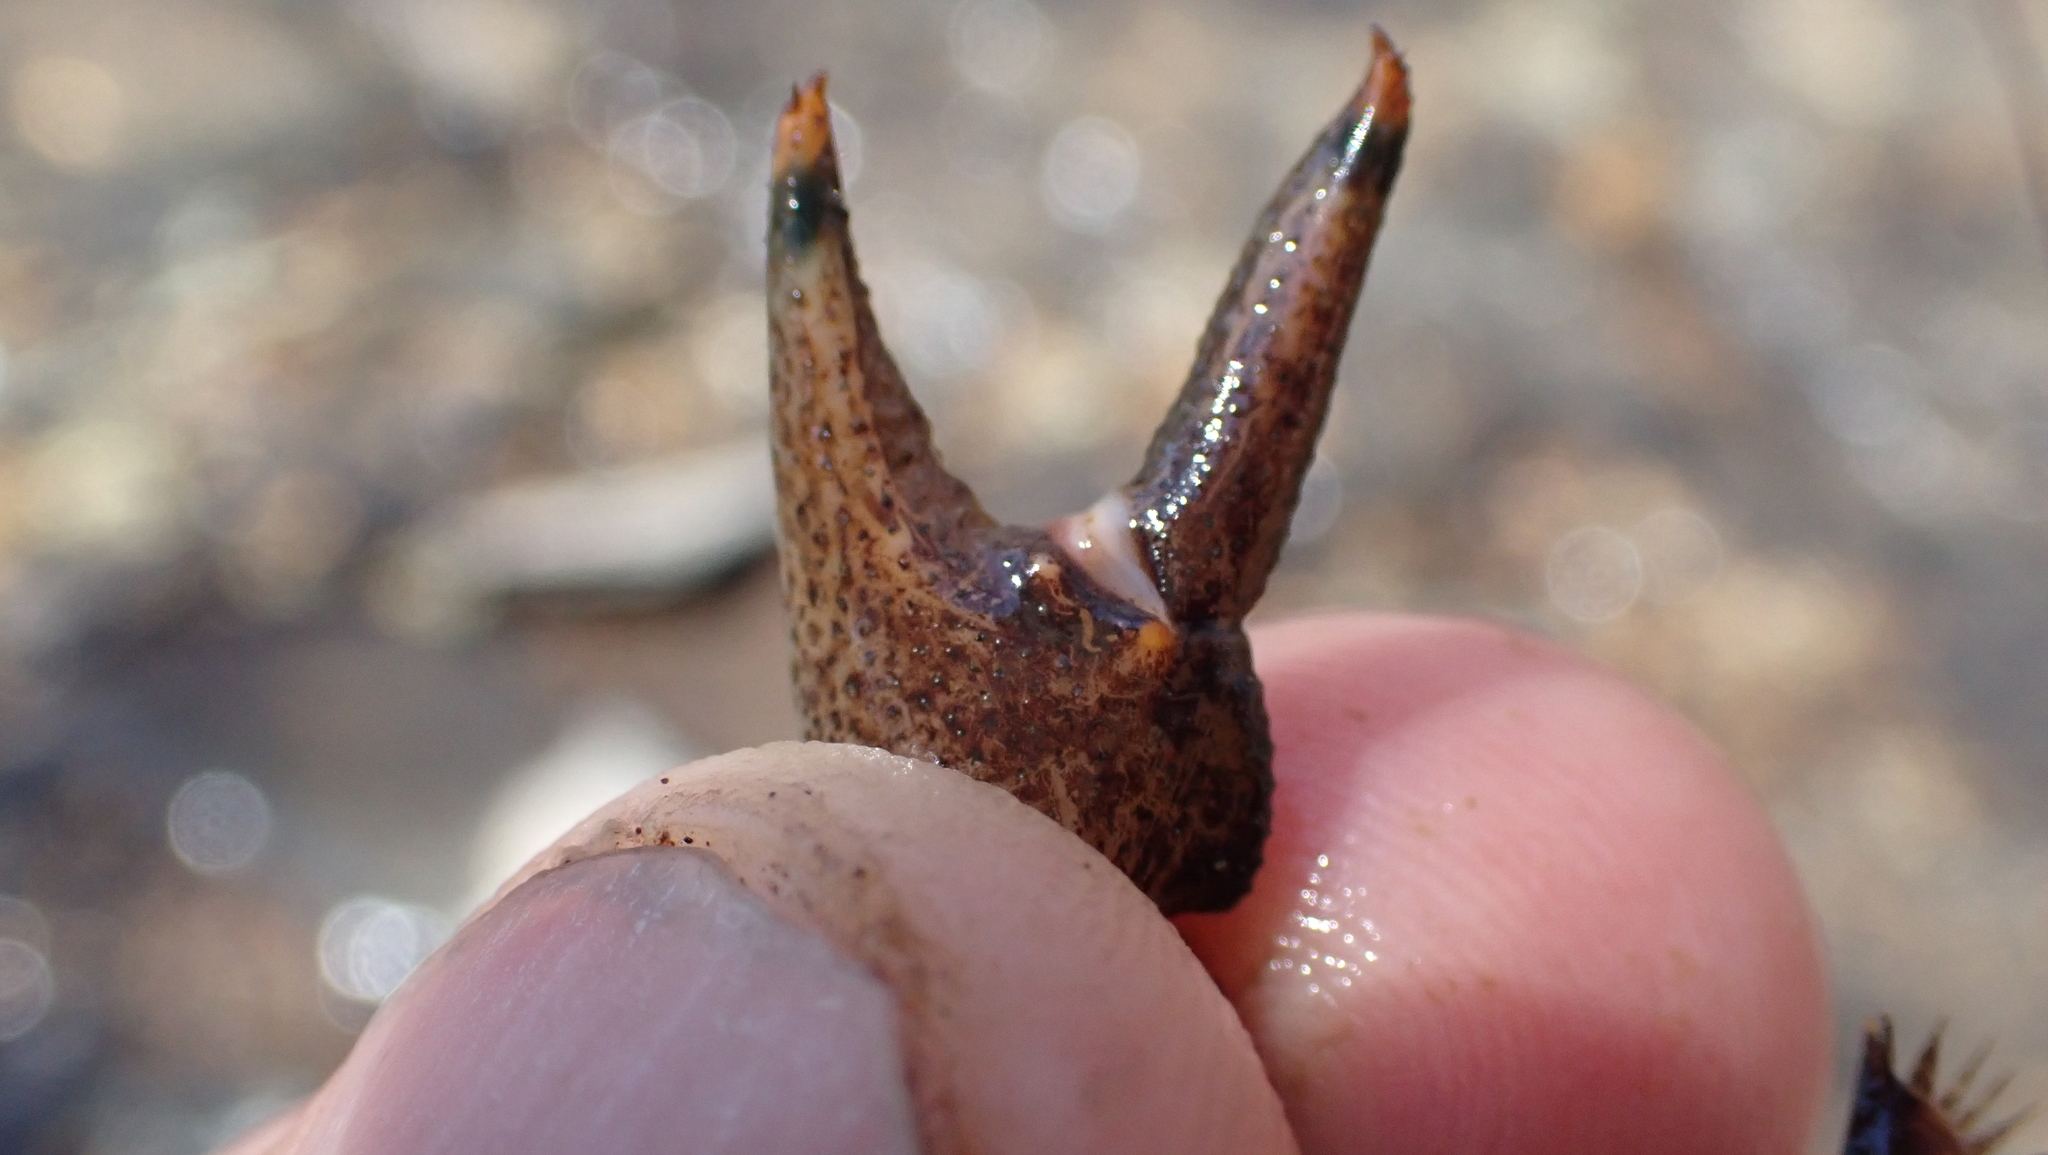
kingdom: Animalia
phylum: Arthropoda
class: Malacostraca
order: Decapoda
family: Cambaridae
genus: Faxonius
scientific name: Faxonius rusticus
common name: Rusty crayfish
